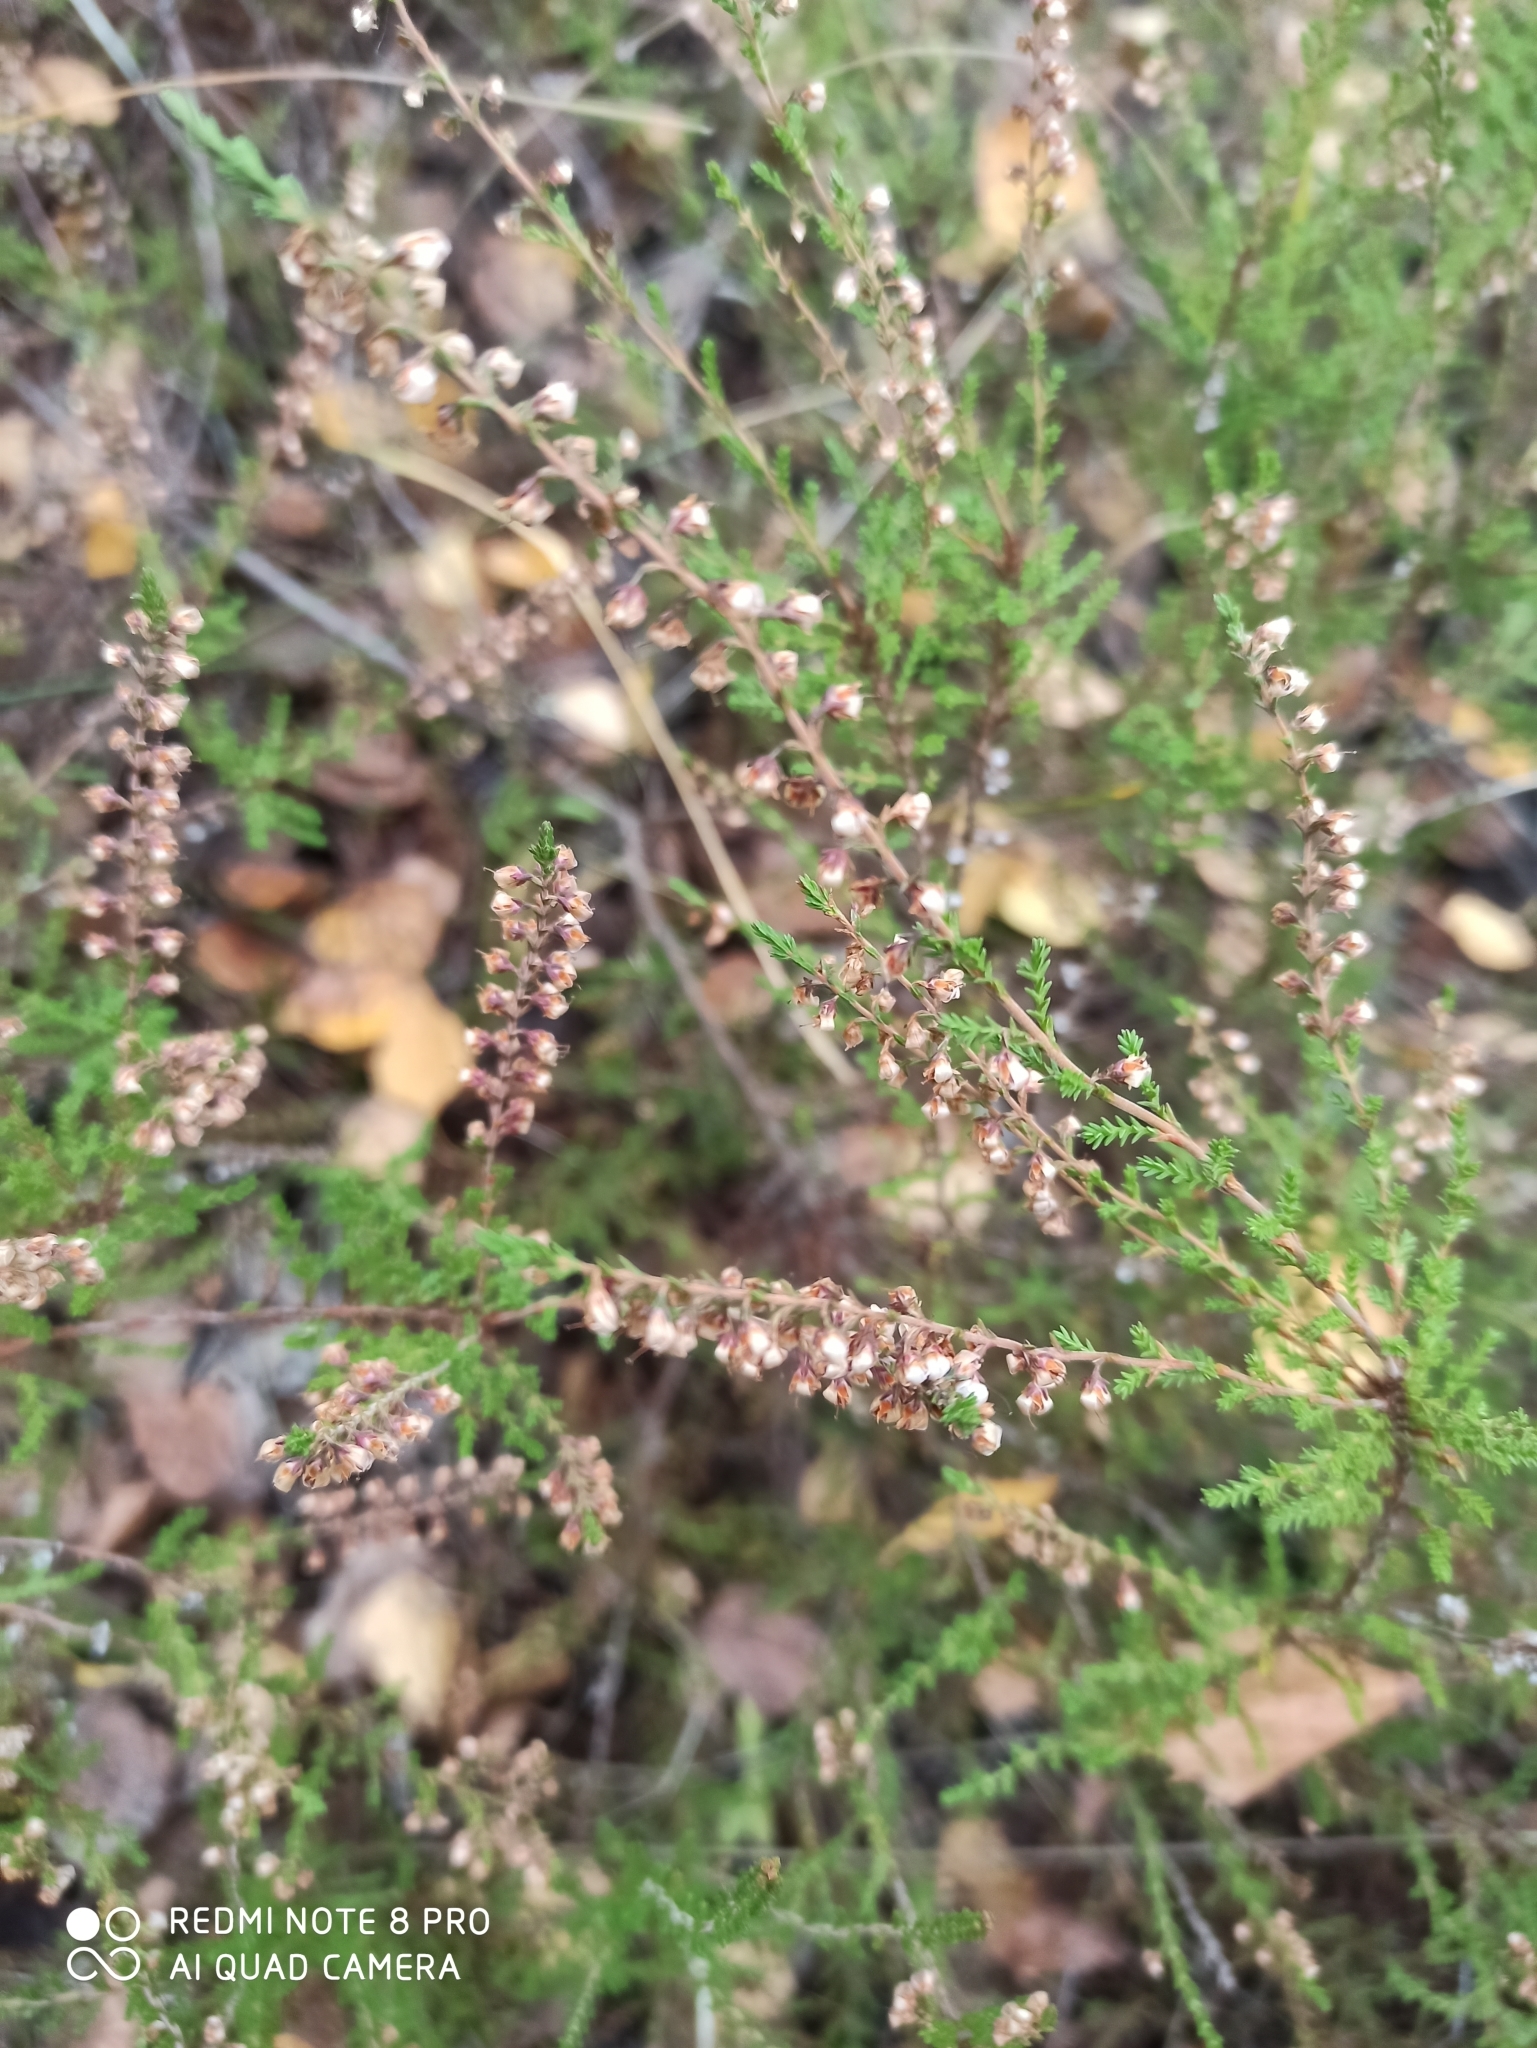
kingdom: Plantae
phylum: Tracheophyta
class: Magnoliopsida
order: Ericales
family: Ericaceae
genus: Calluna
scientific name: Calluna vulgaris
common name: Heather
